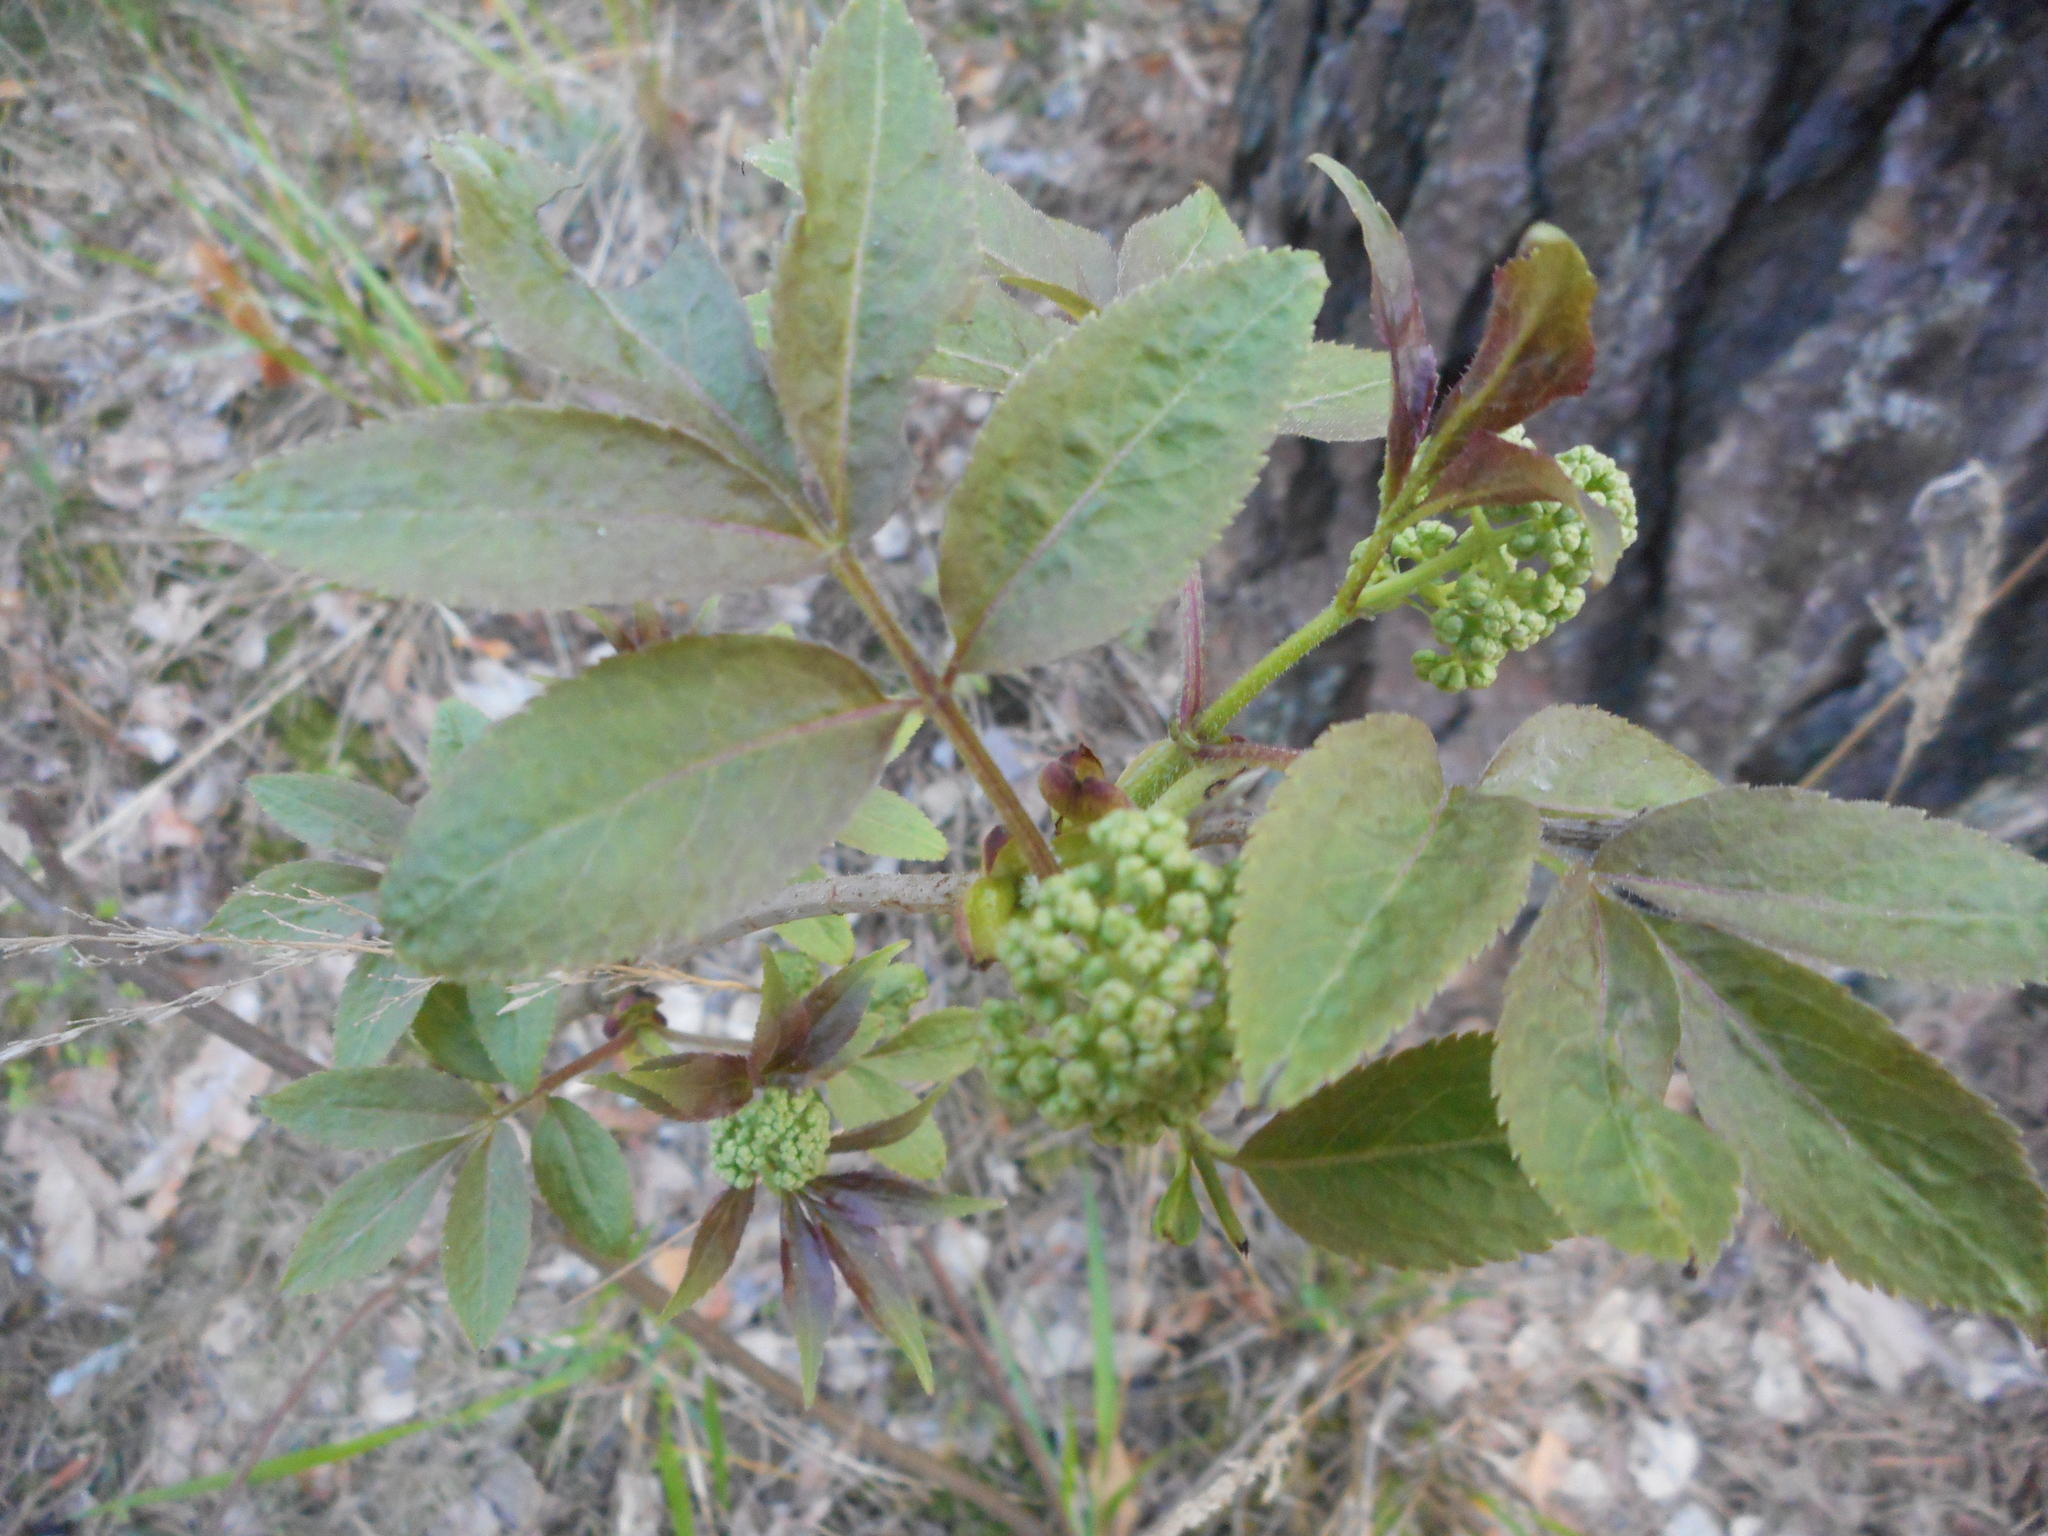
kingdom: Plantae
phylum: Tracheophyta
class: Magnoliopsida
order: Dipsacales
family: Viburnaceae
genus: Sambucus
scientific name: Sambucus racemosa
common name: Red-berried elder
